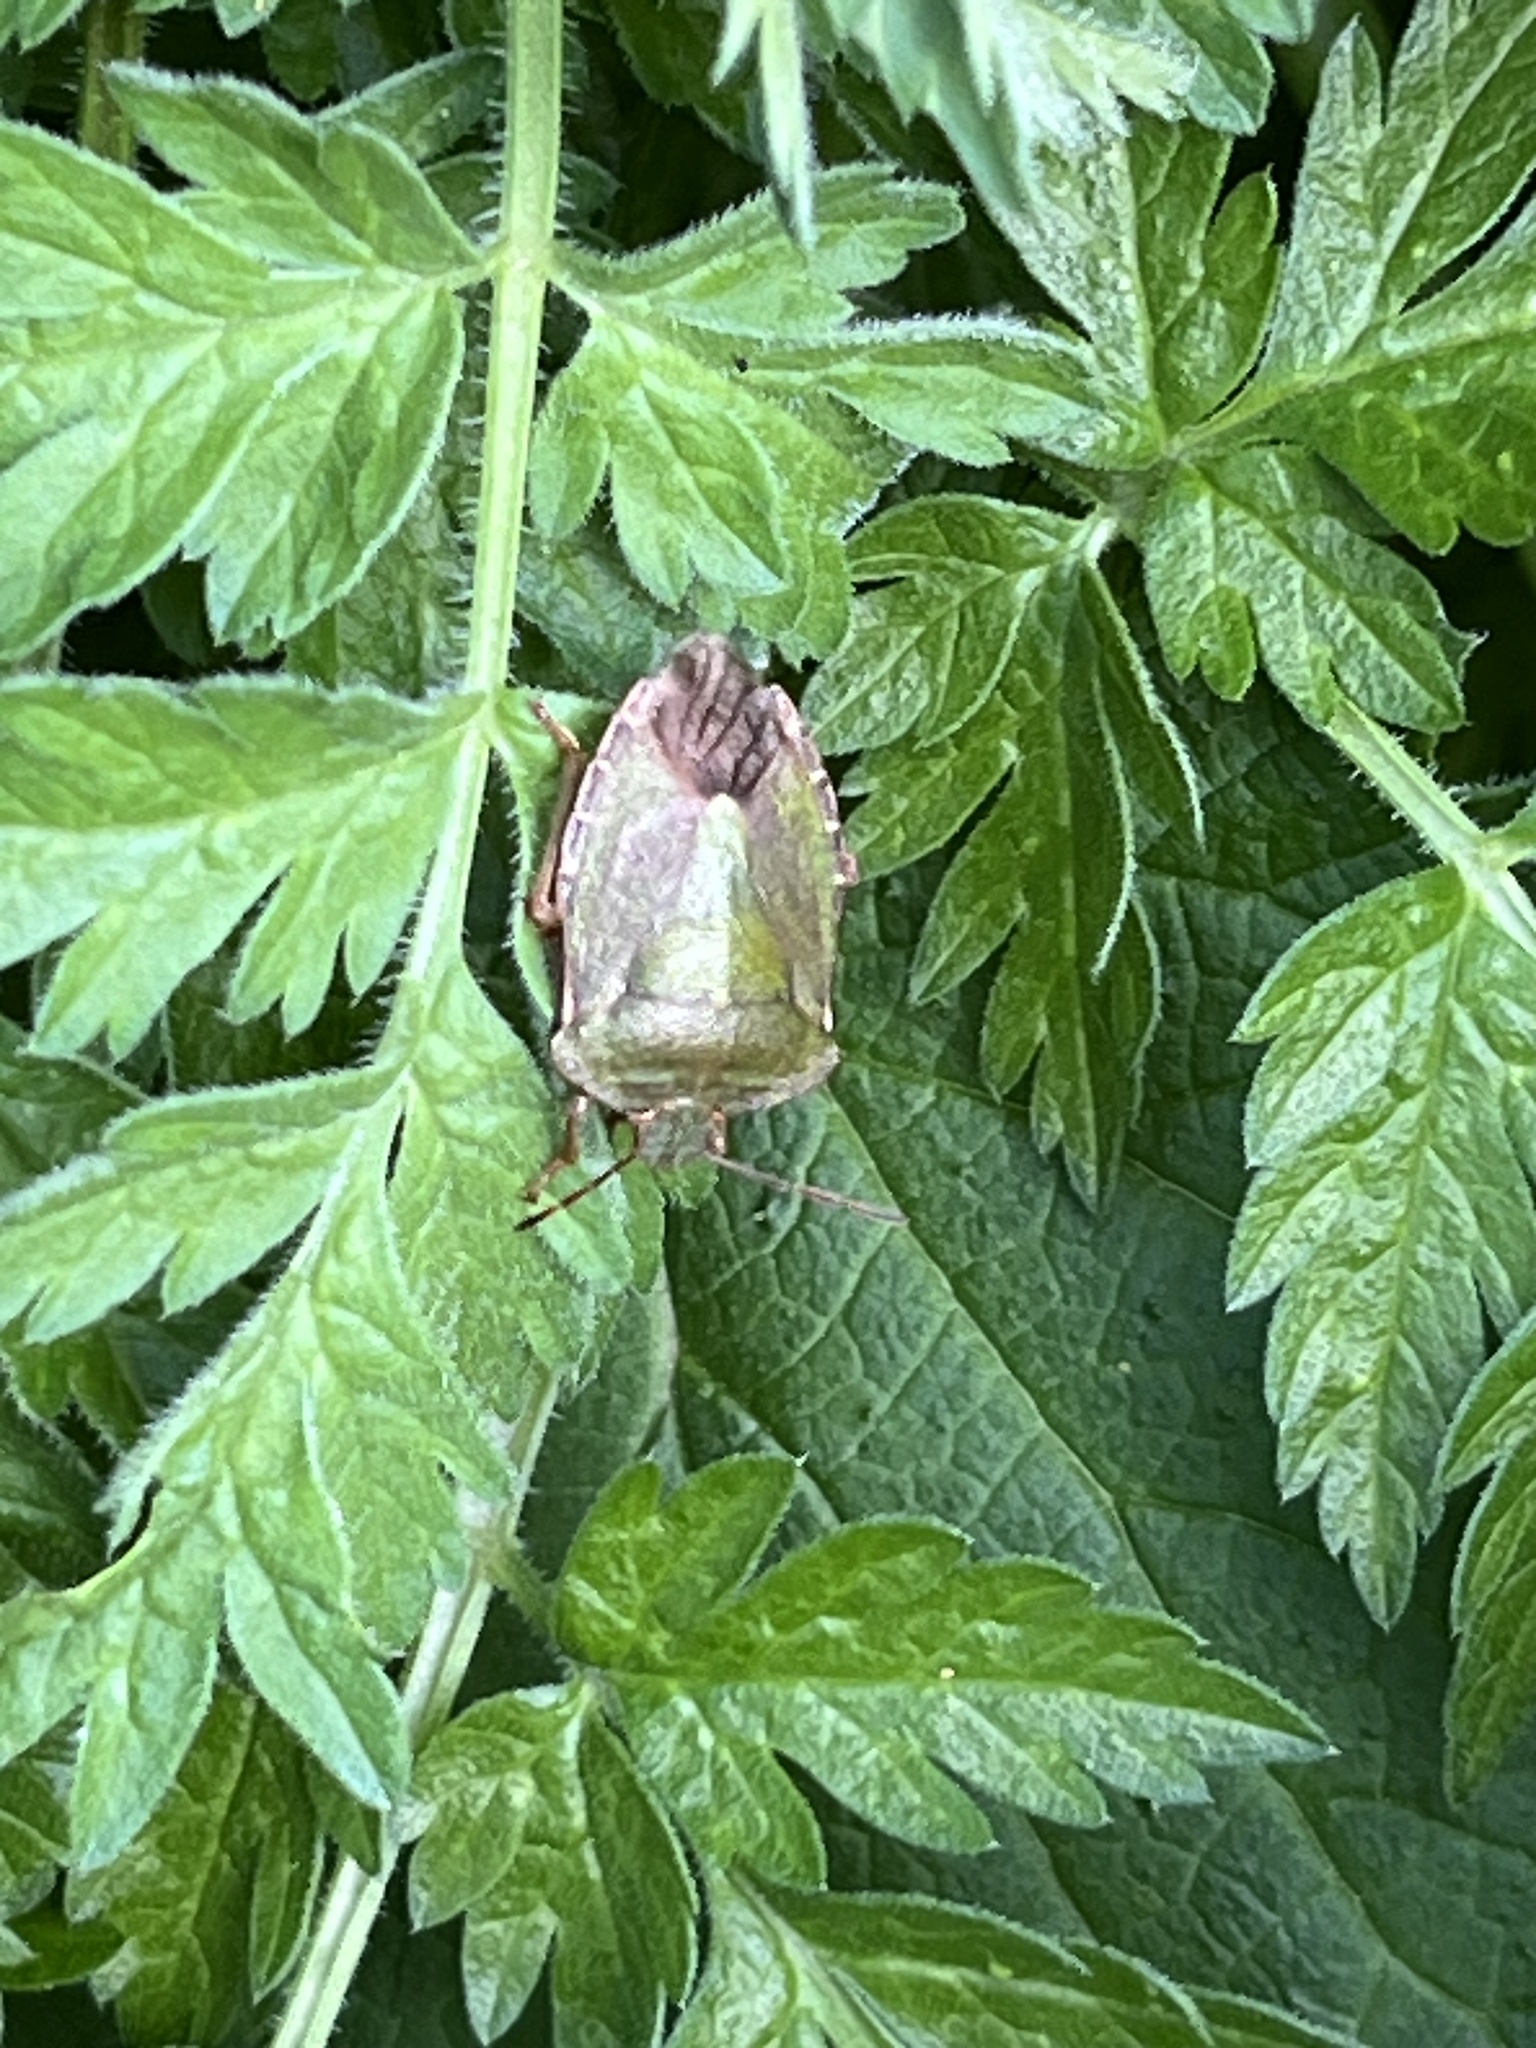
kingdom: Animalia
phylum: Arthropoda
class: Insecta
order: Hemiptera
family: Pentatomidae
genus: Palomena
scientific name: Palomena prasina
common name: Green shieldbug
